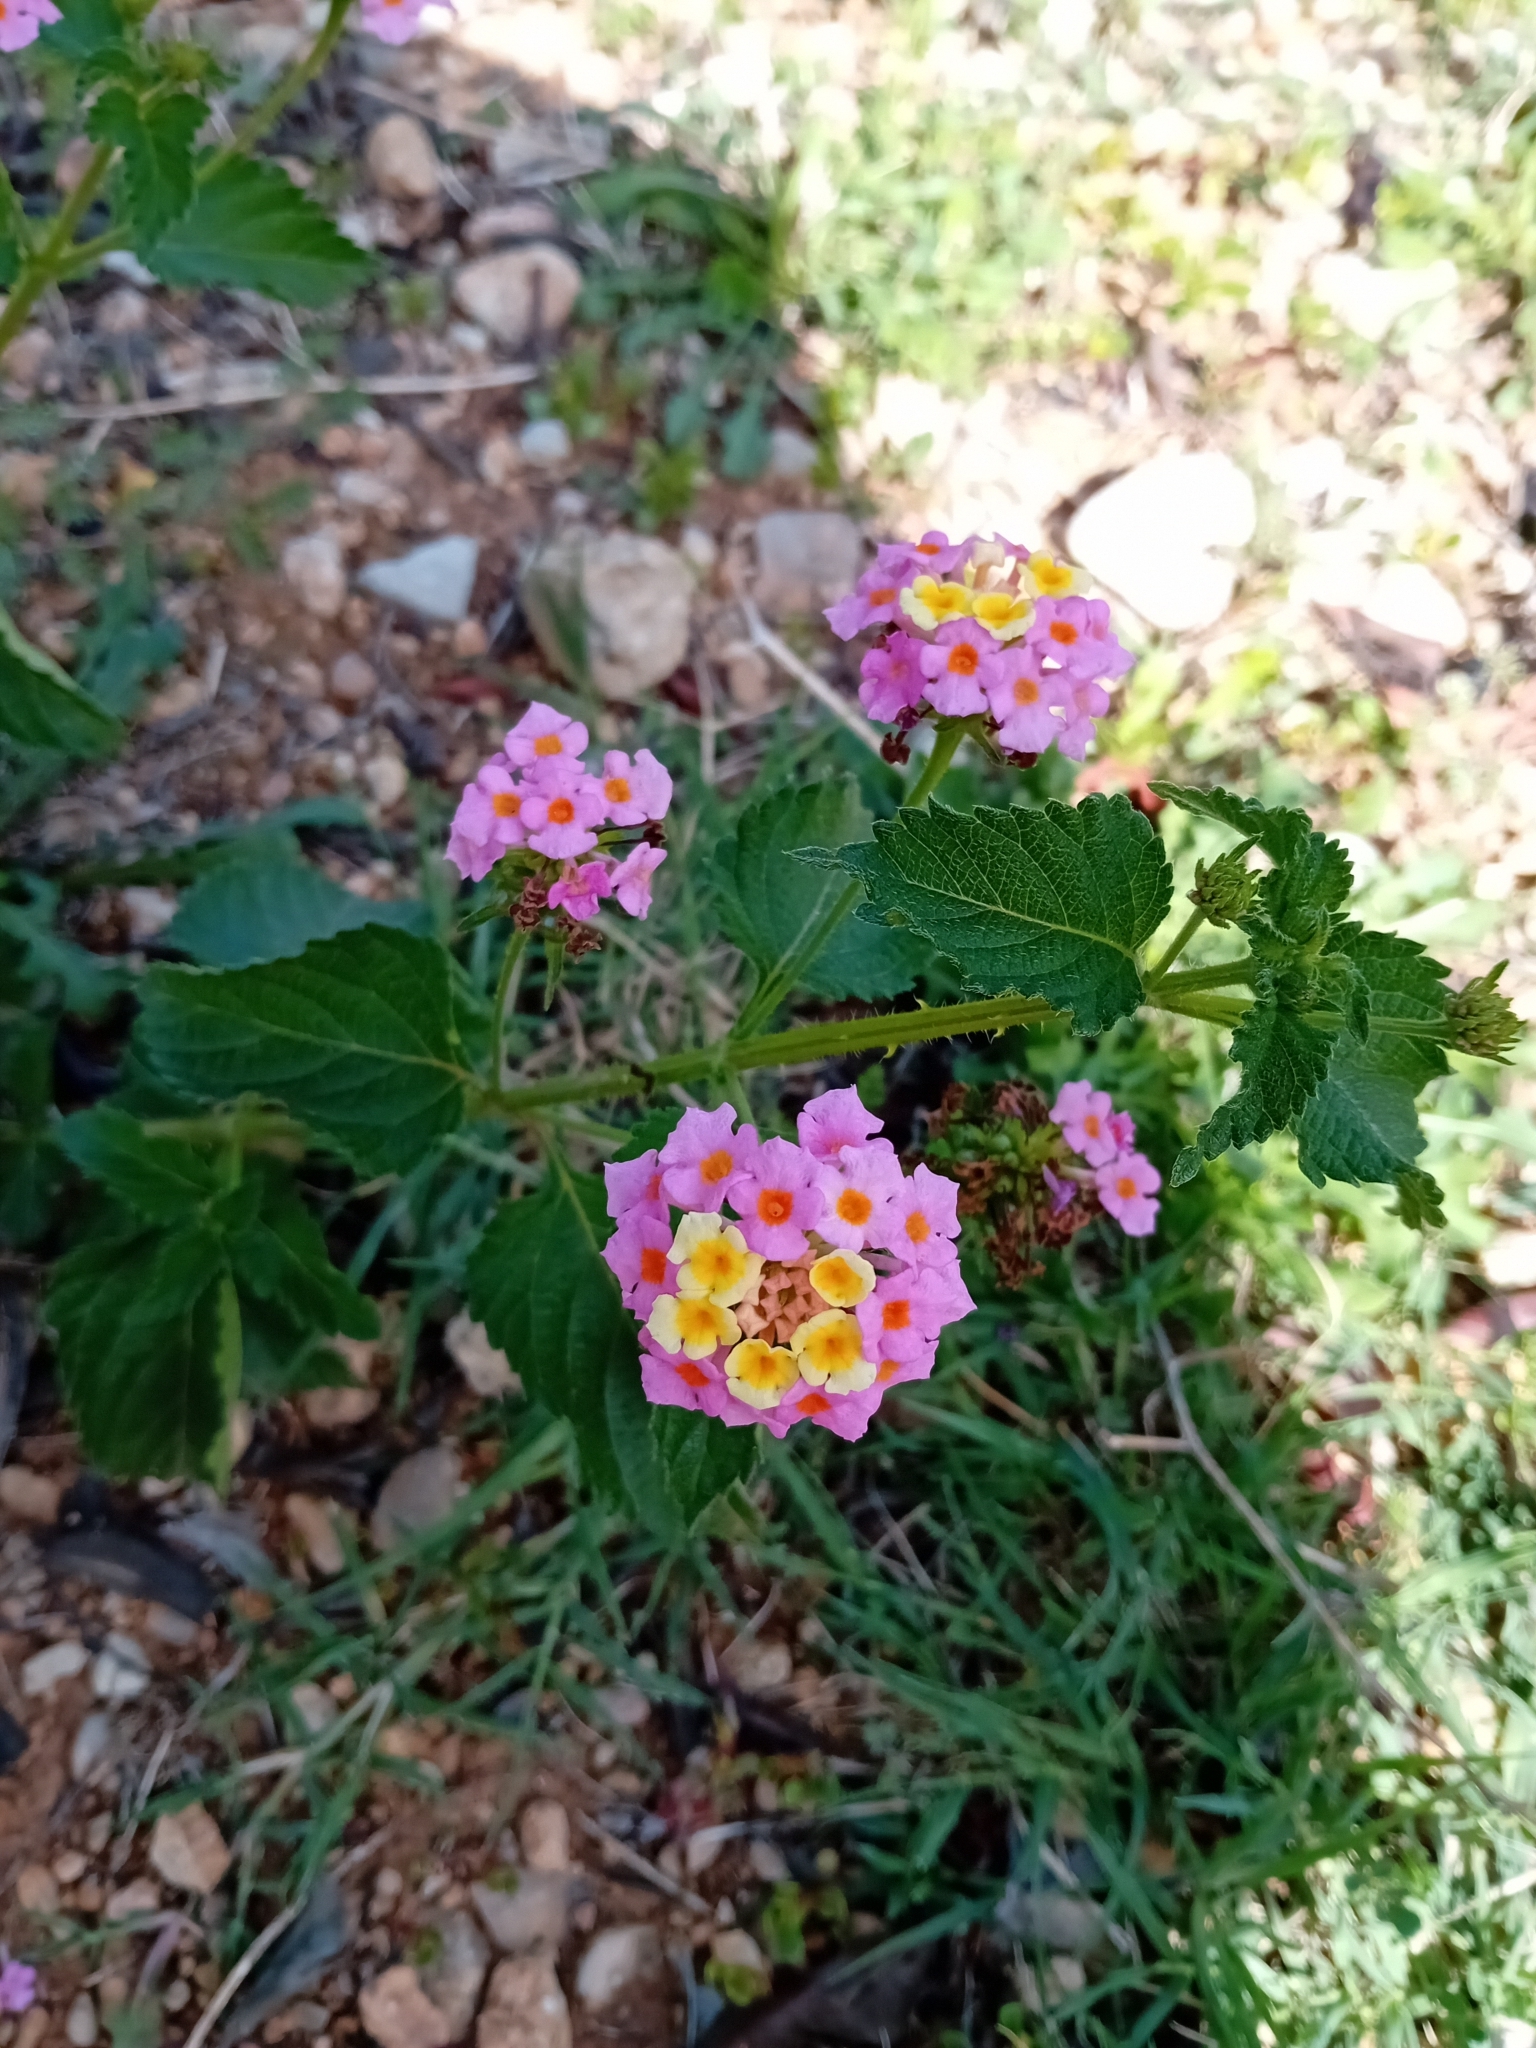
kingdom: Plantae
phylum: Tracheophyta
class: Magnoliopsida
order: Lamiales
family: Verbenaceae
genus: Lantana
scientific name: Lantana camara
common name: Lantana
